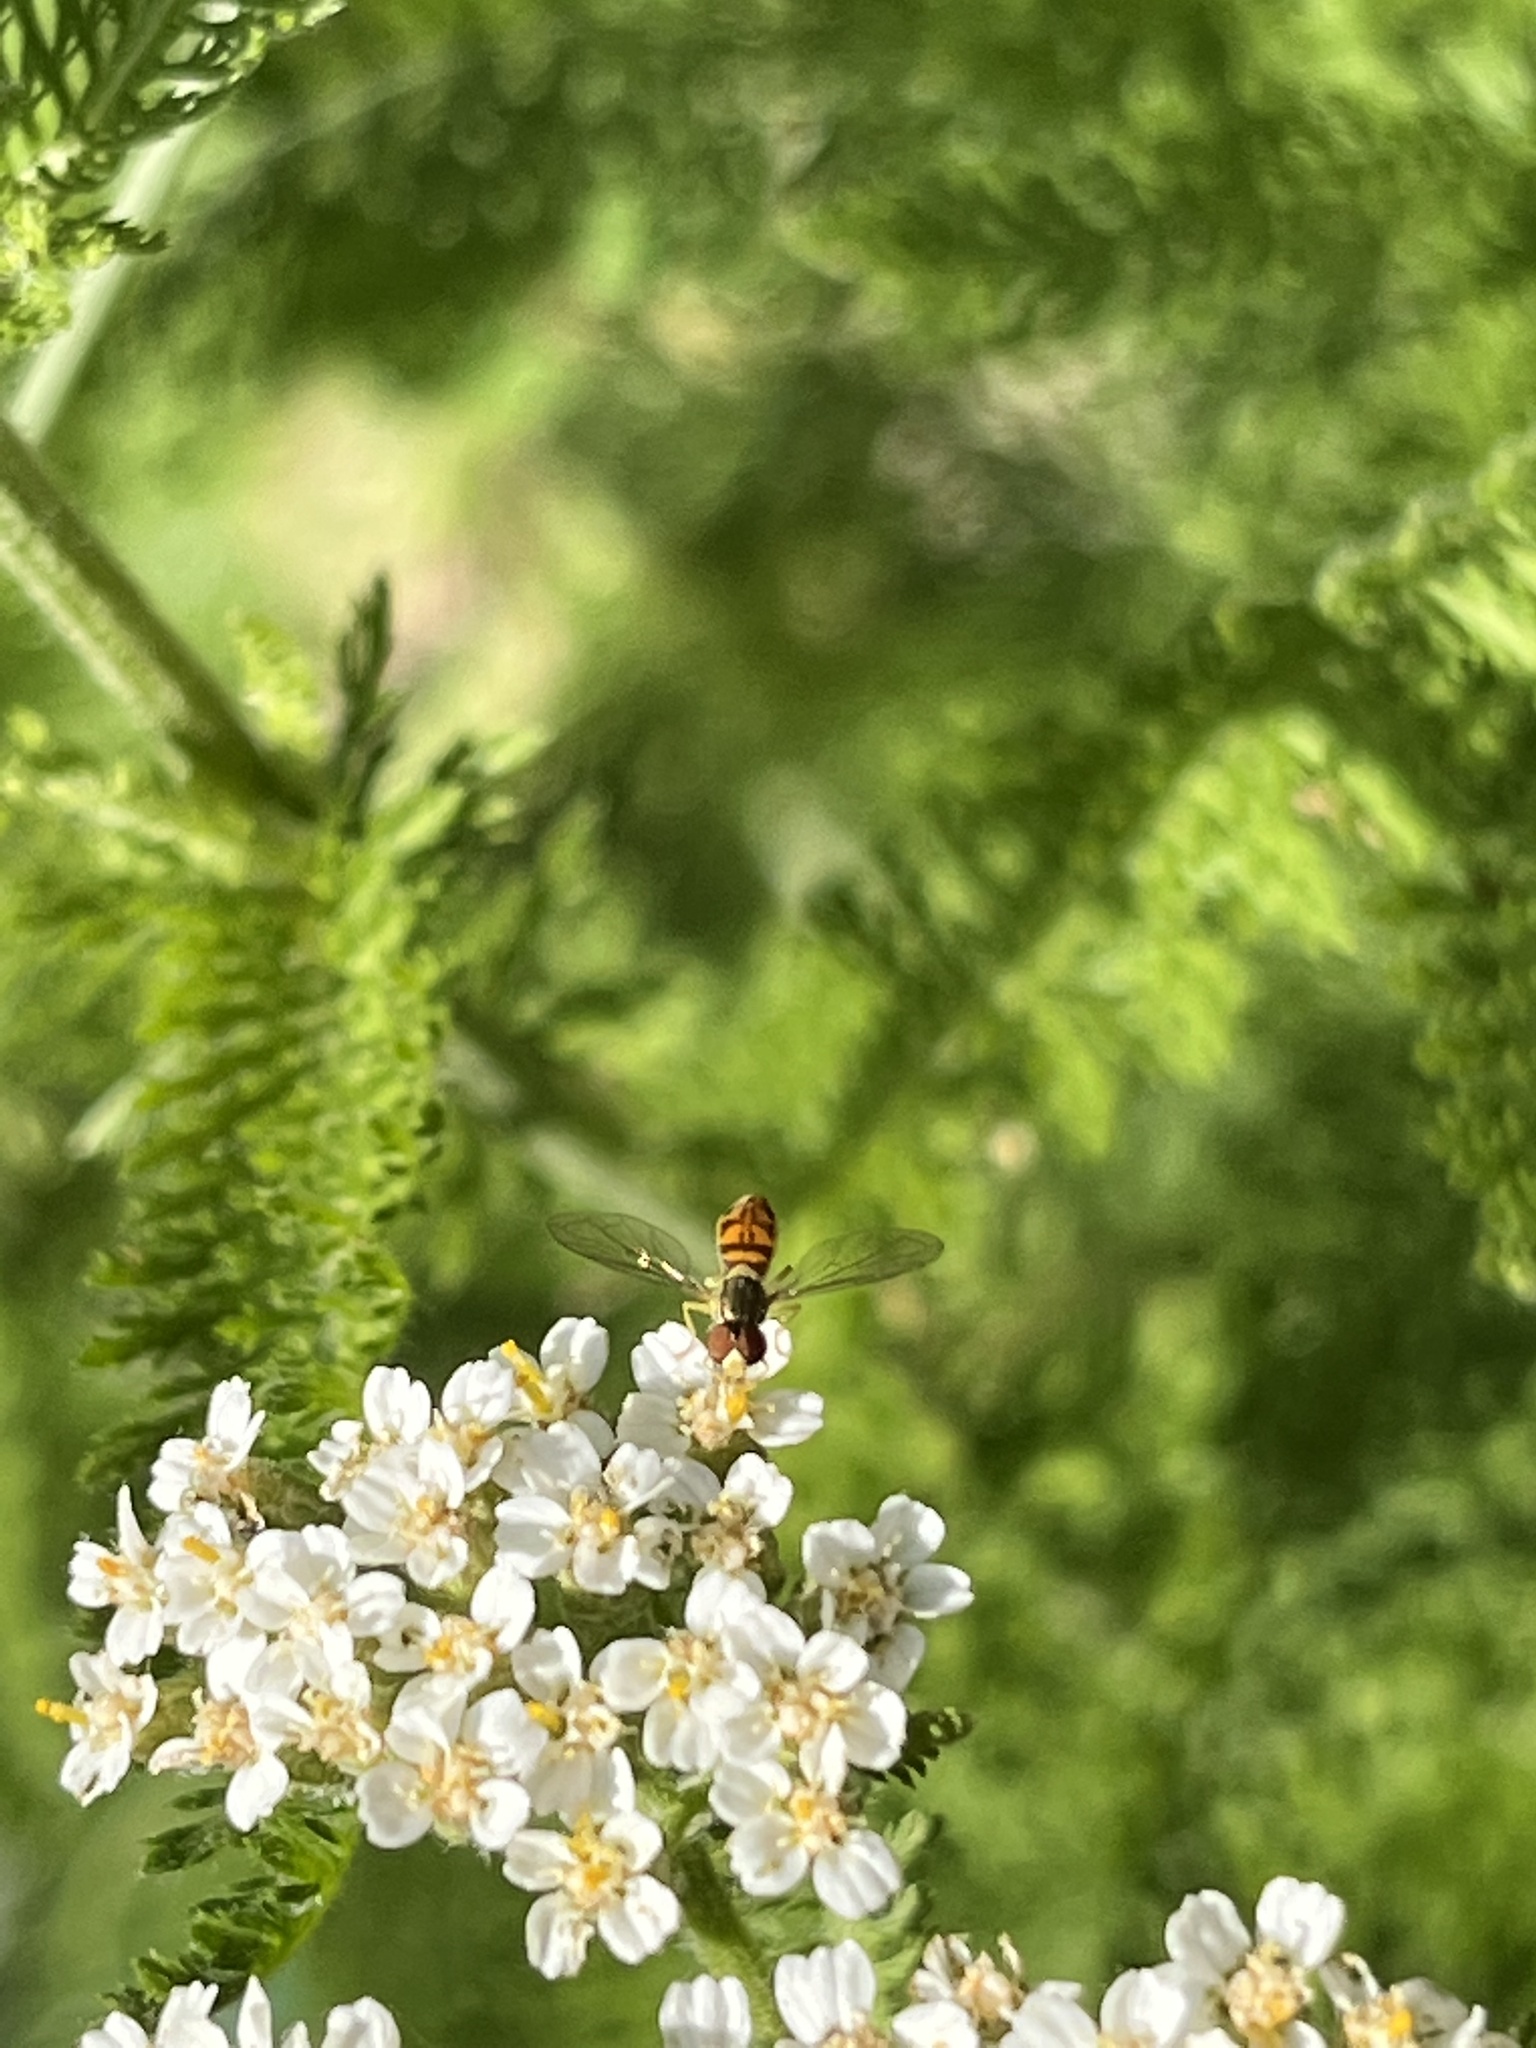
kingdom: Animalia
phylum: Arthropoda
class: Insecta
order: Diptera
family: Syrphidae
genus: Toxomerus
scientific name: Toxomerus marginatus
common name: Syrphid fly
